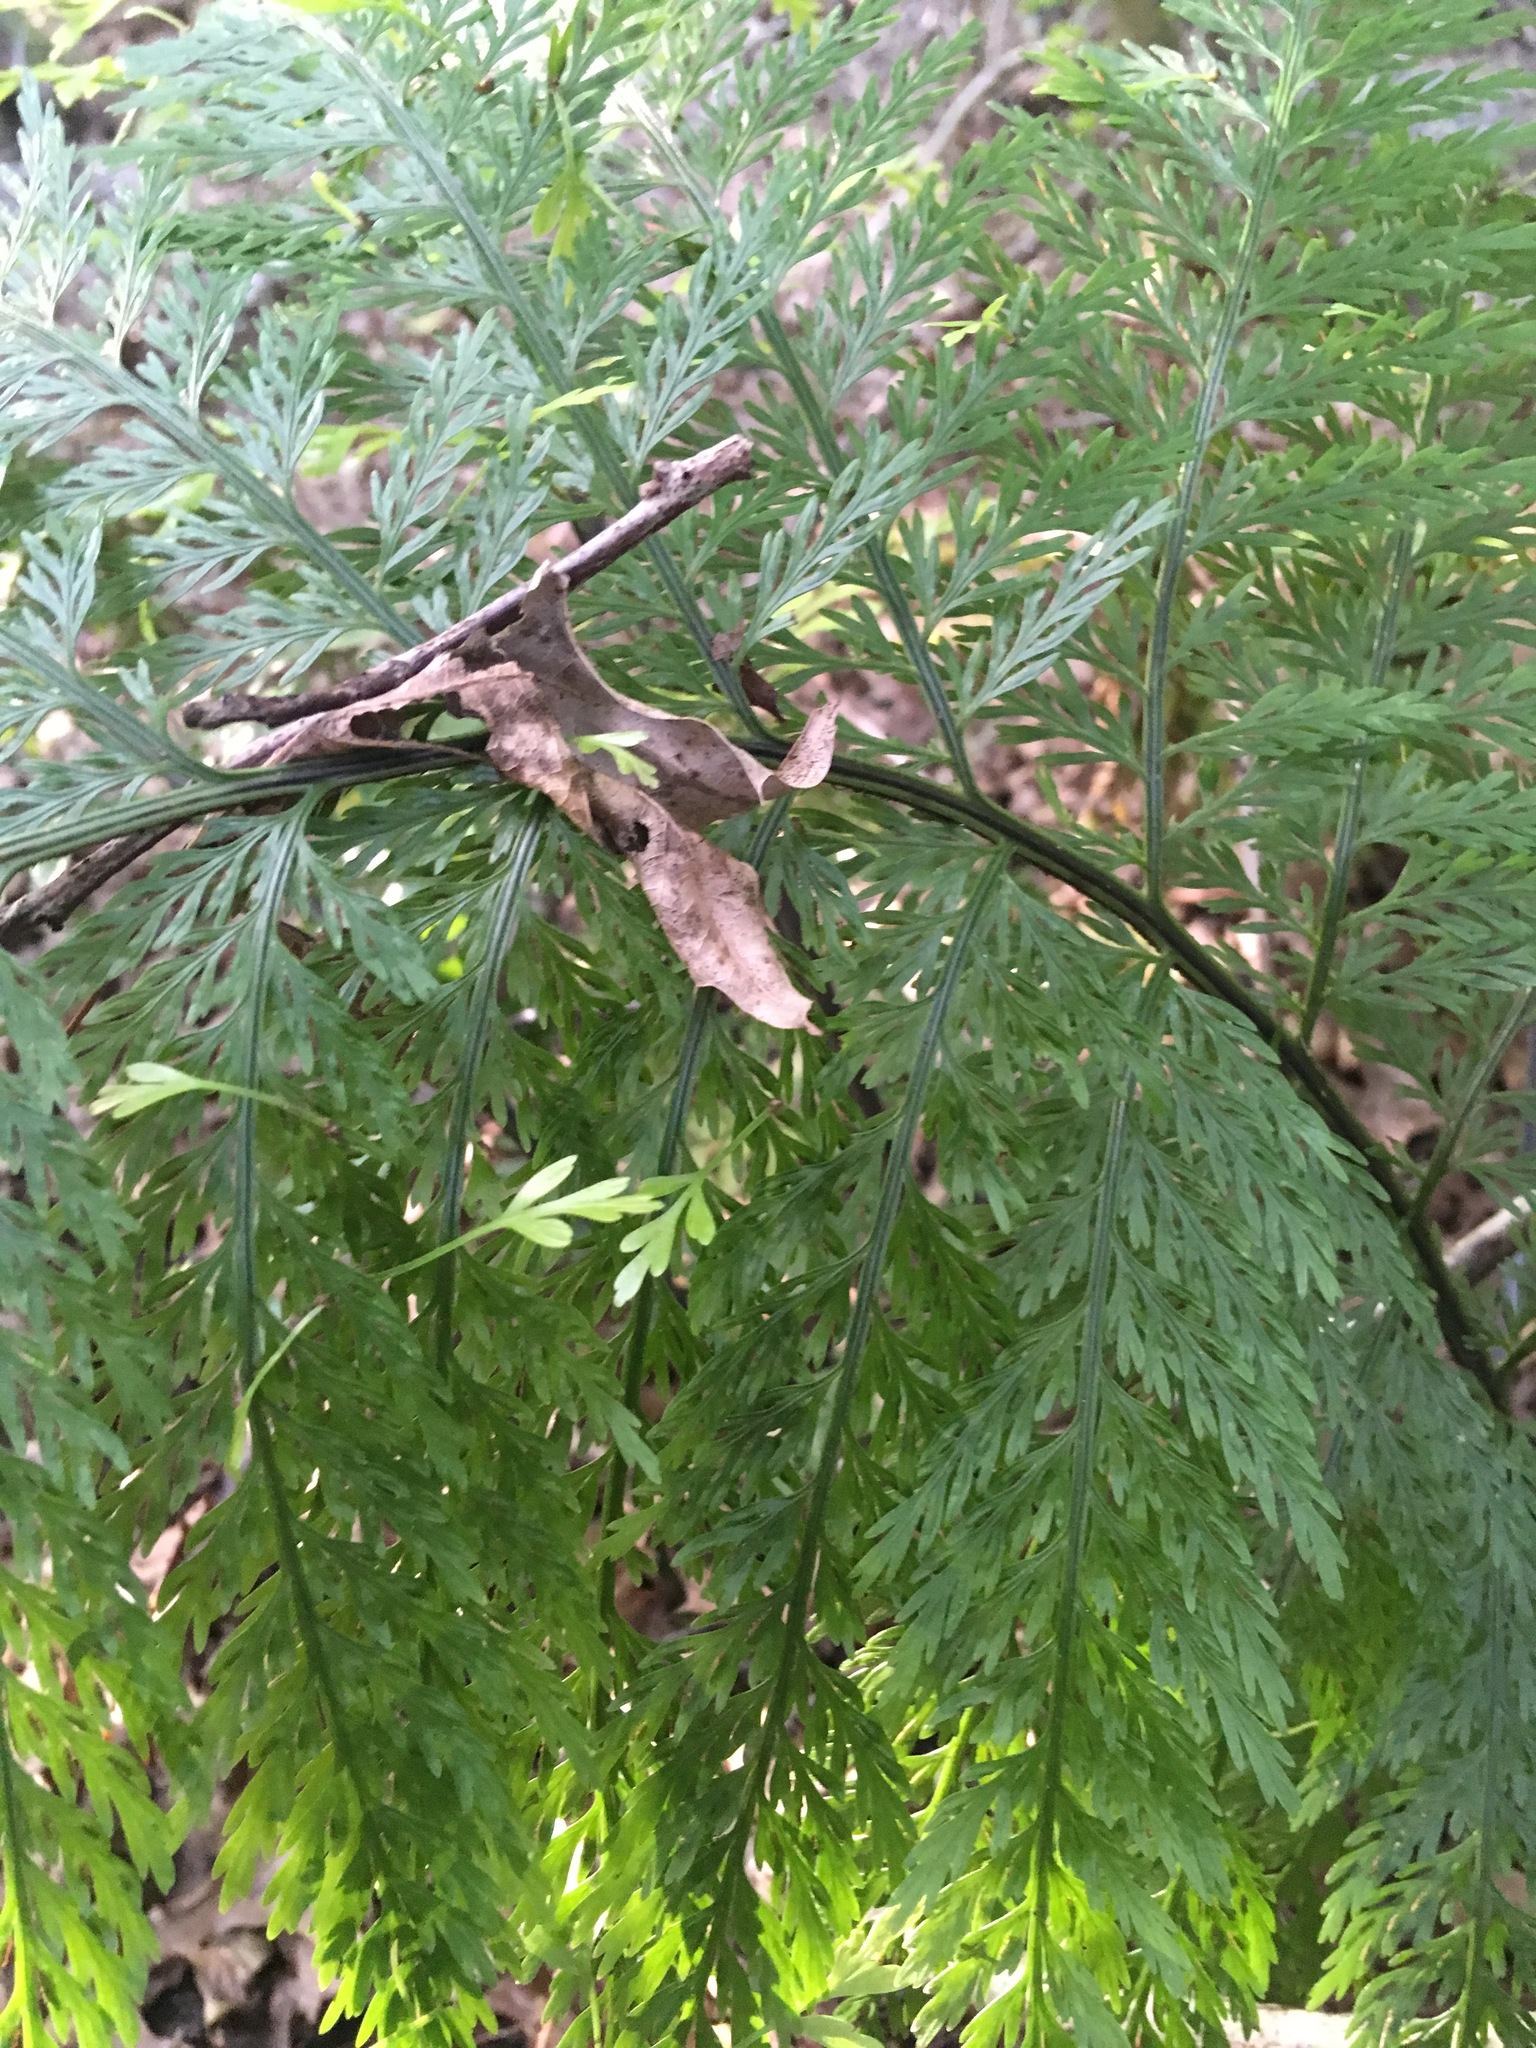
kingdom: Plantae
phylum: Tracheophyta
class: Polypodiopsida
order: Polypodiales
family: Aspleniaceae
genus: Asplenium
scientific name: Asplenium lucrosum
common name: False hen-and-chickens fern
